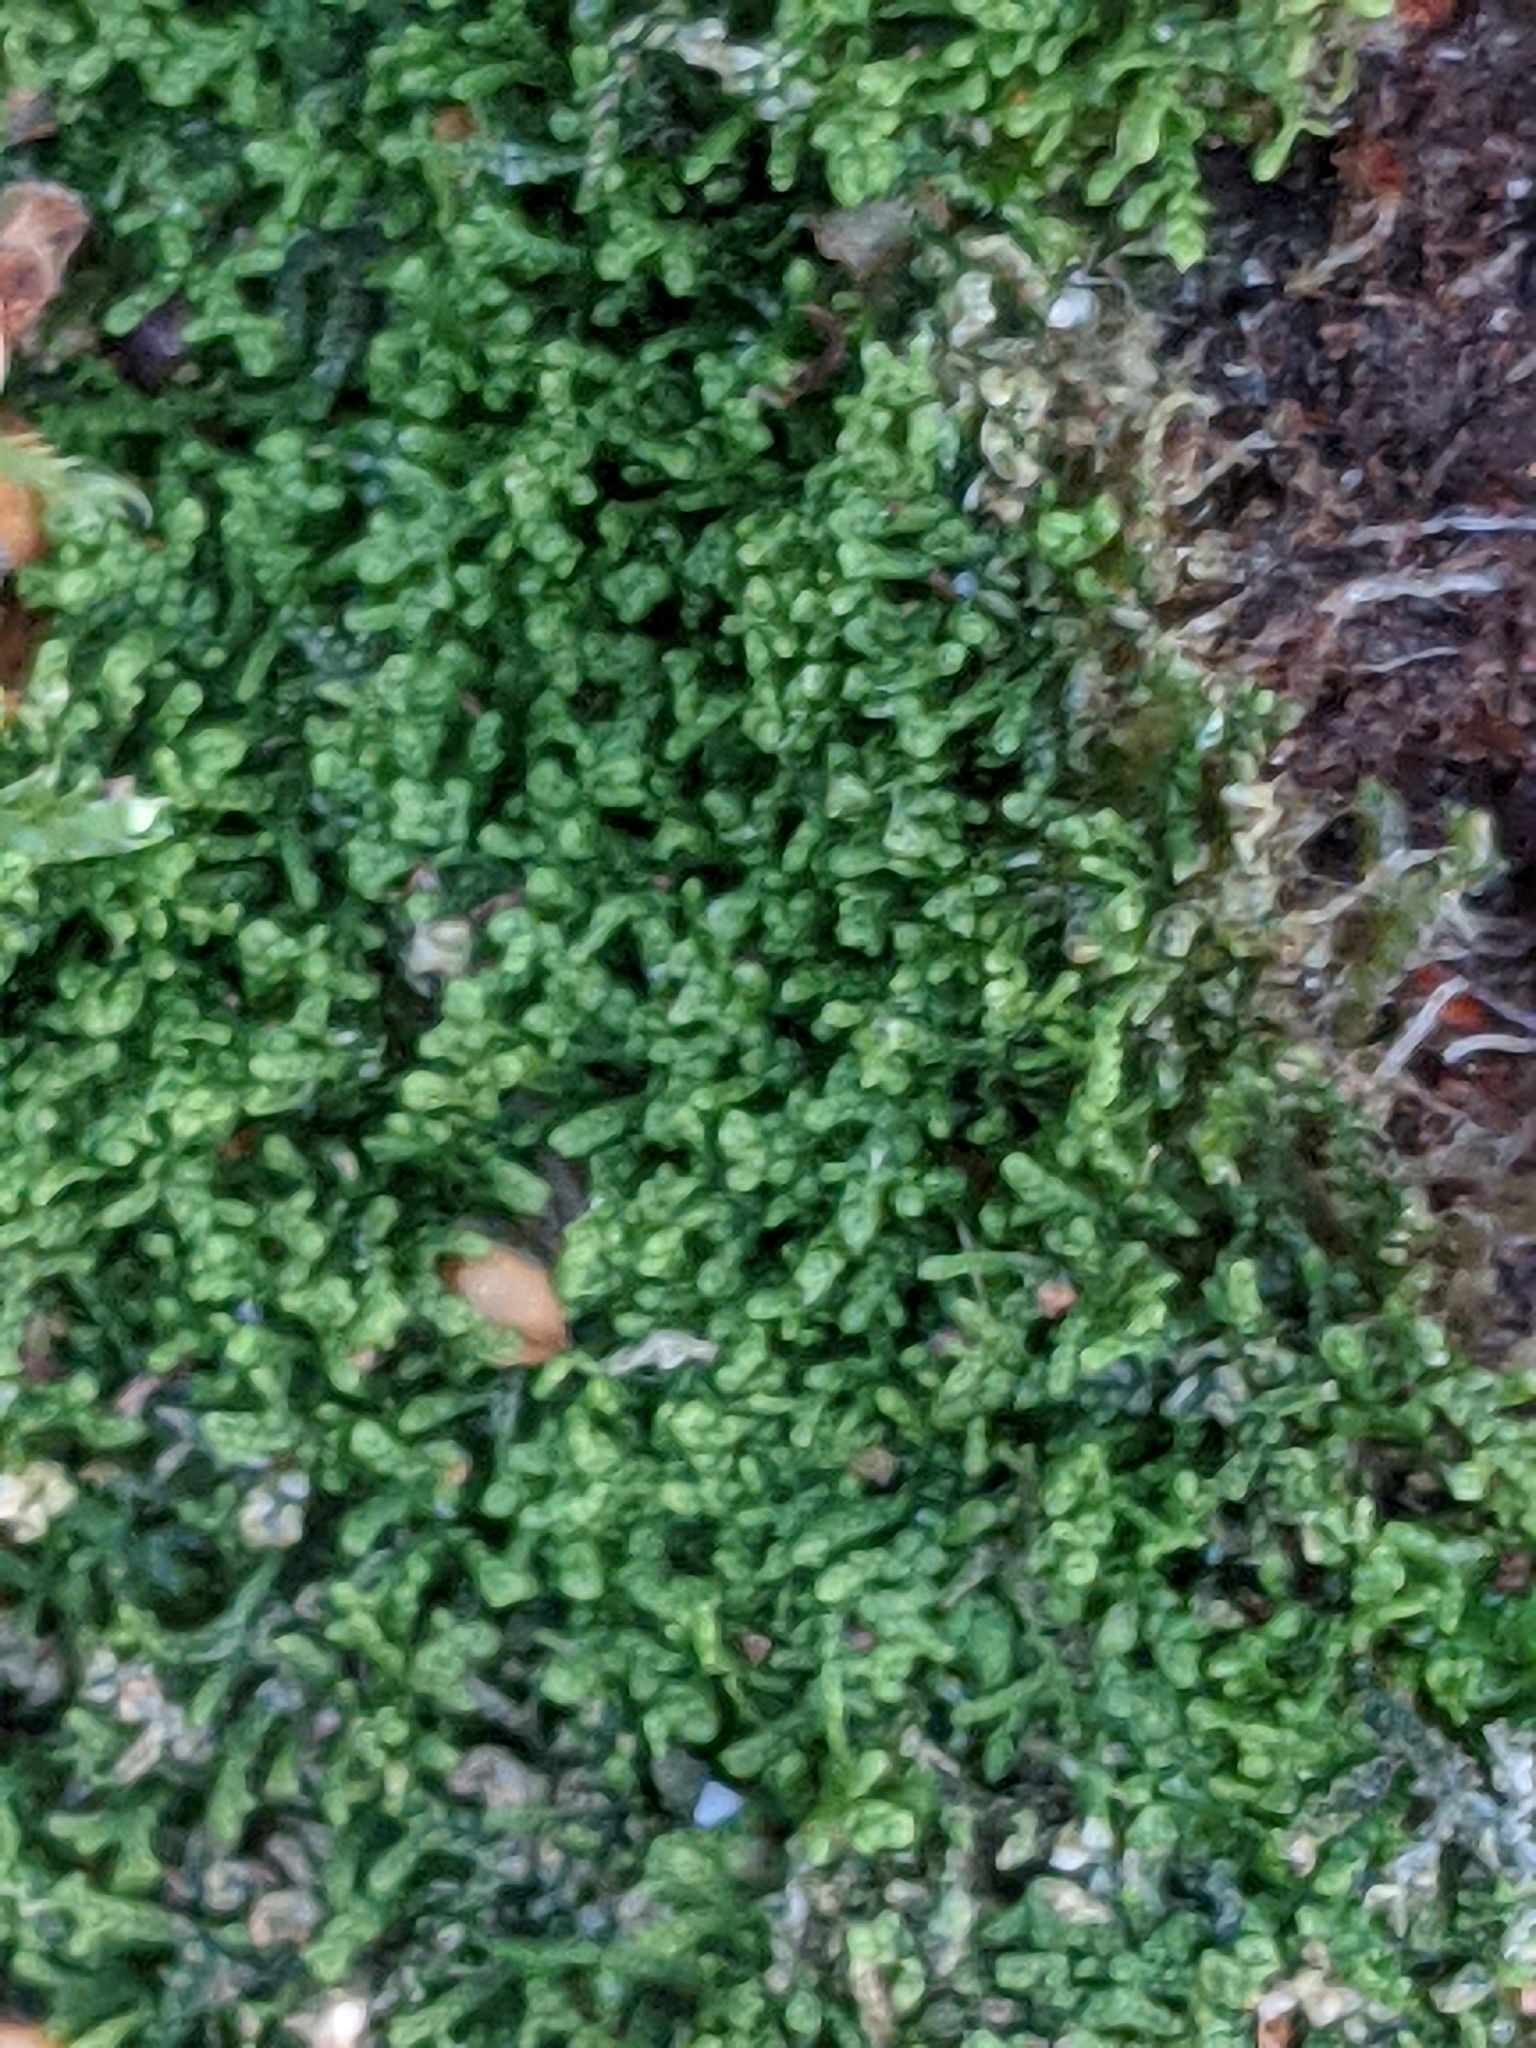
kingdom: Plantae
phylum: Marchantiophyta
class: Jungermanniopsida
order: Jungermanniales
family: Lepidoziaceae
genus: Lepidozia
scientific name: Lepidozia reptans
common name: Creeping fingerwort
